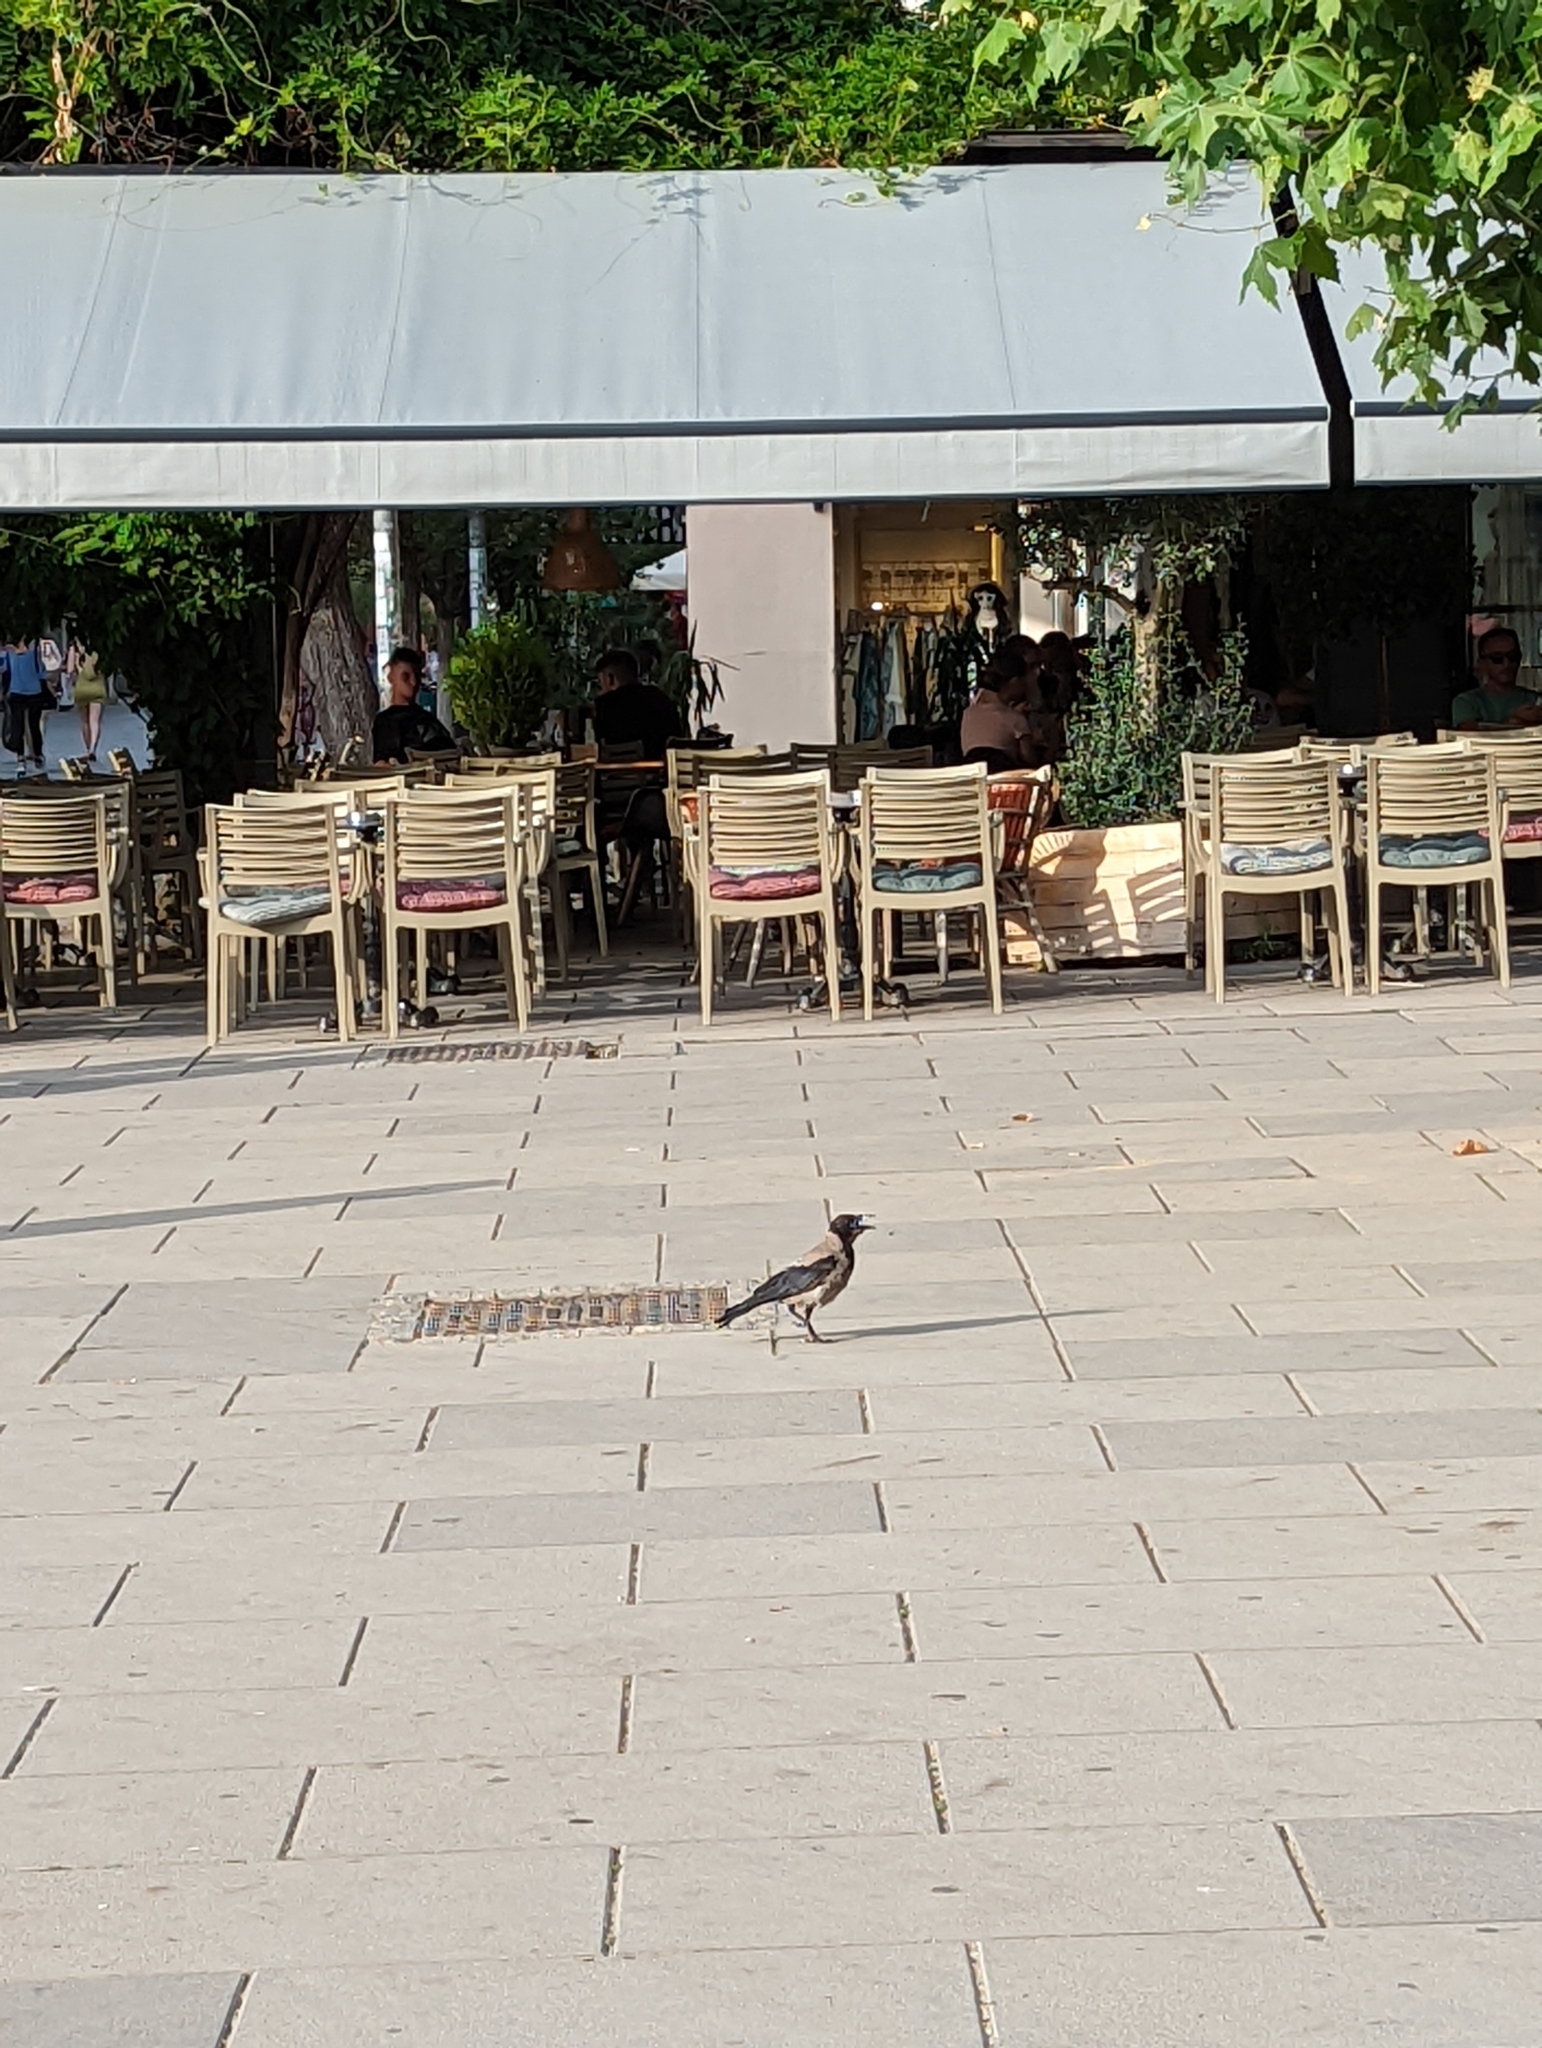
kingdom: Animalia
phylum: Chordata
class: Aves
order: Passeriformes
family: Corvidae
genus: Corvus
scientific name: Corvus cornix
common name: Hooded crow
